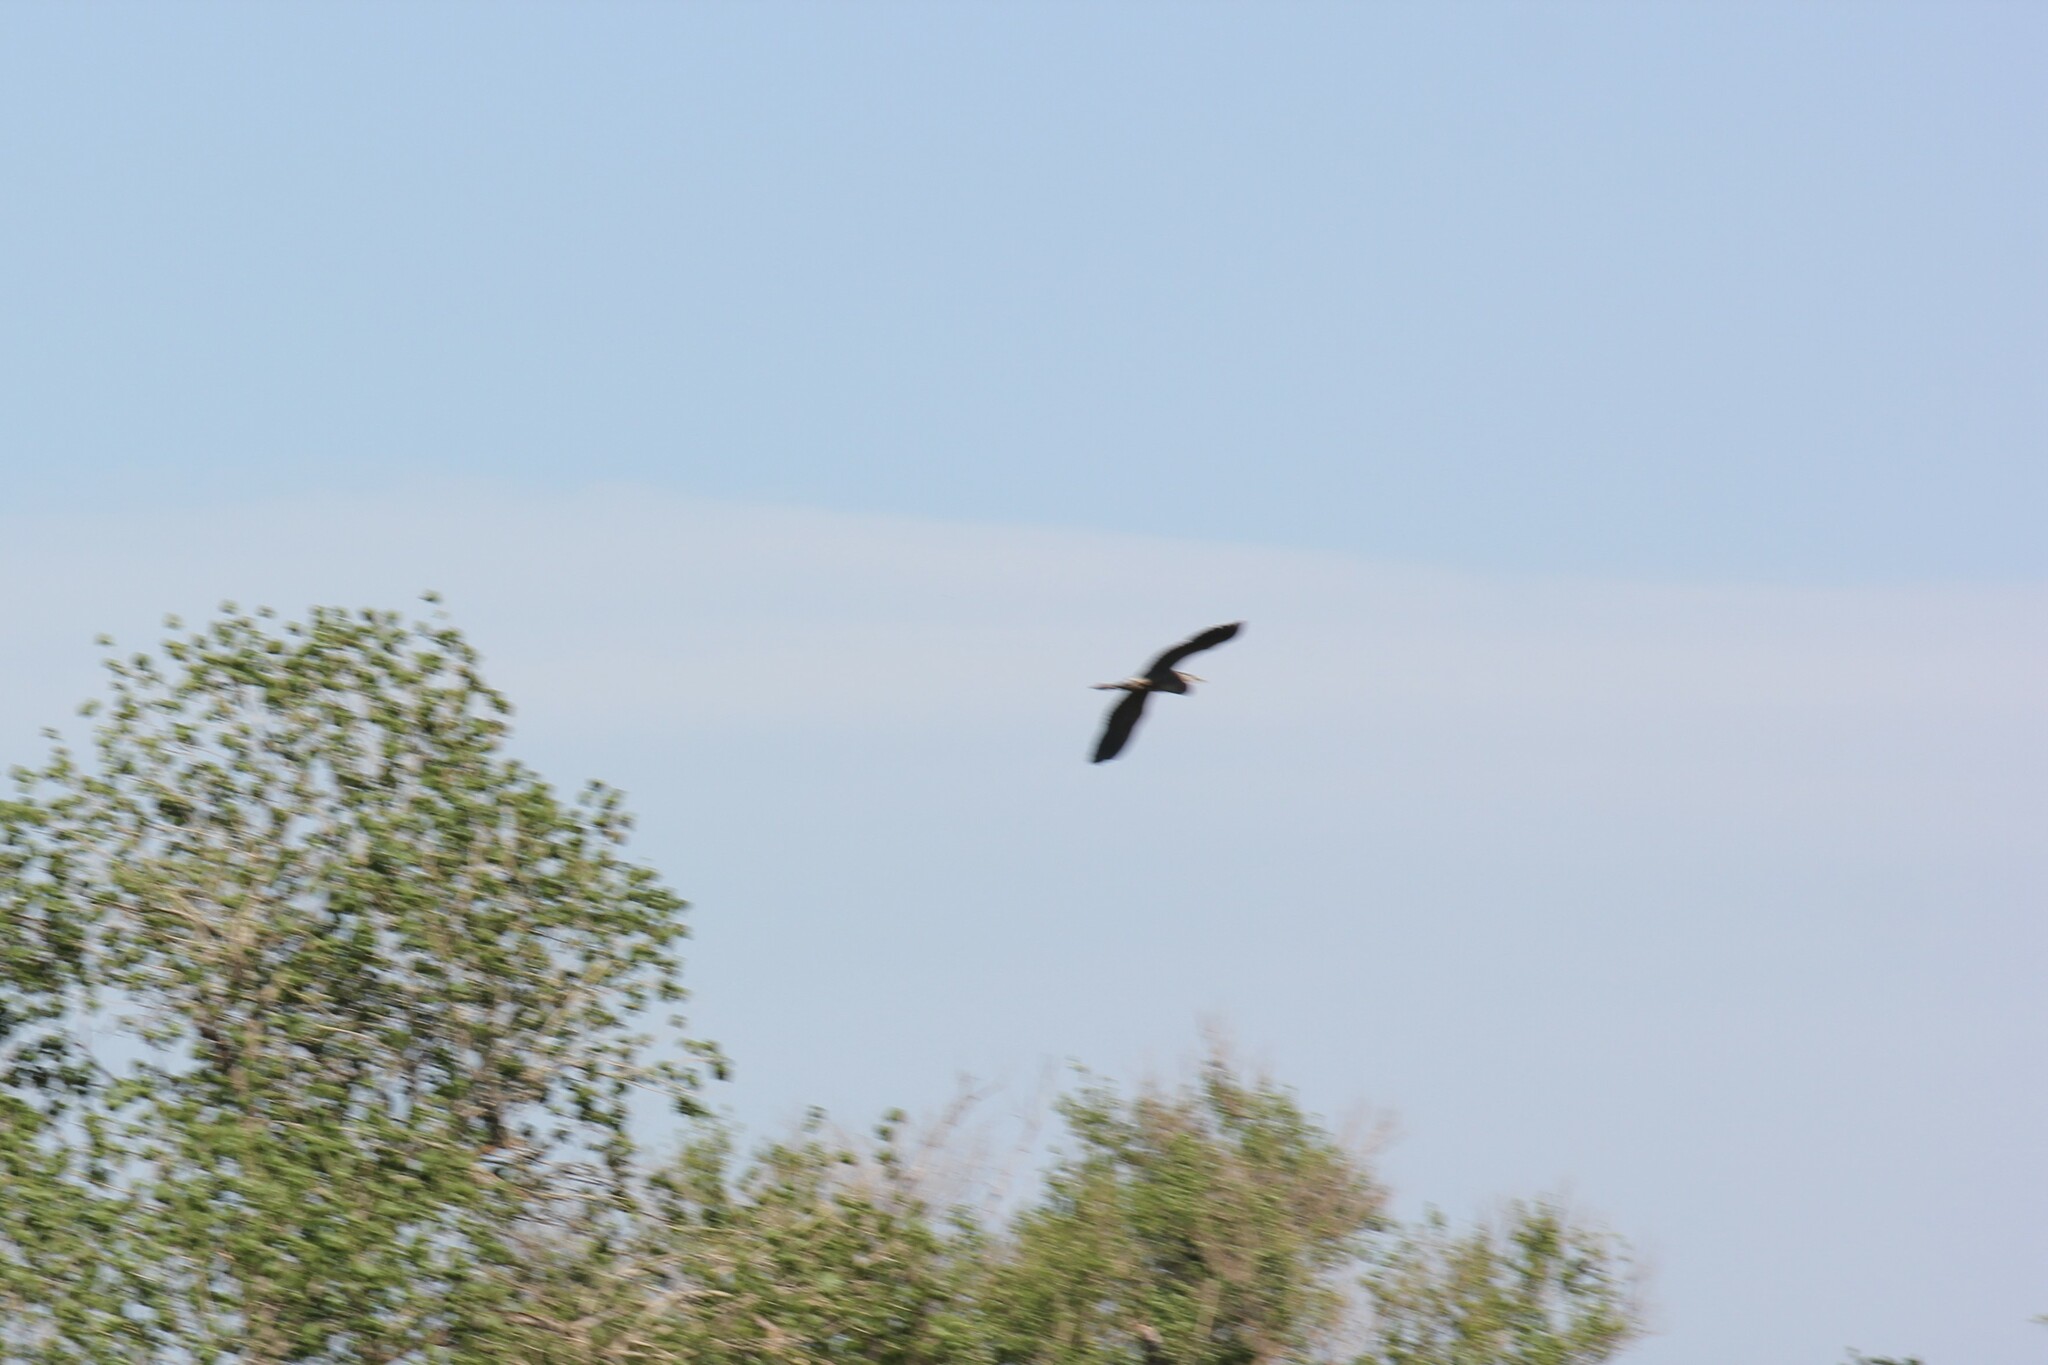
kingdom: Animalia
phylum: Chordata
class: Aves
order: Pelecaniformes
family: Ardeidae
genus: Ardea
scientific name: Ardea herodias
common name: Great blue heron
